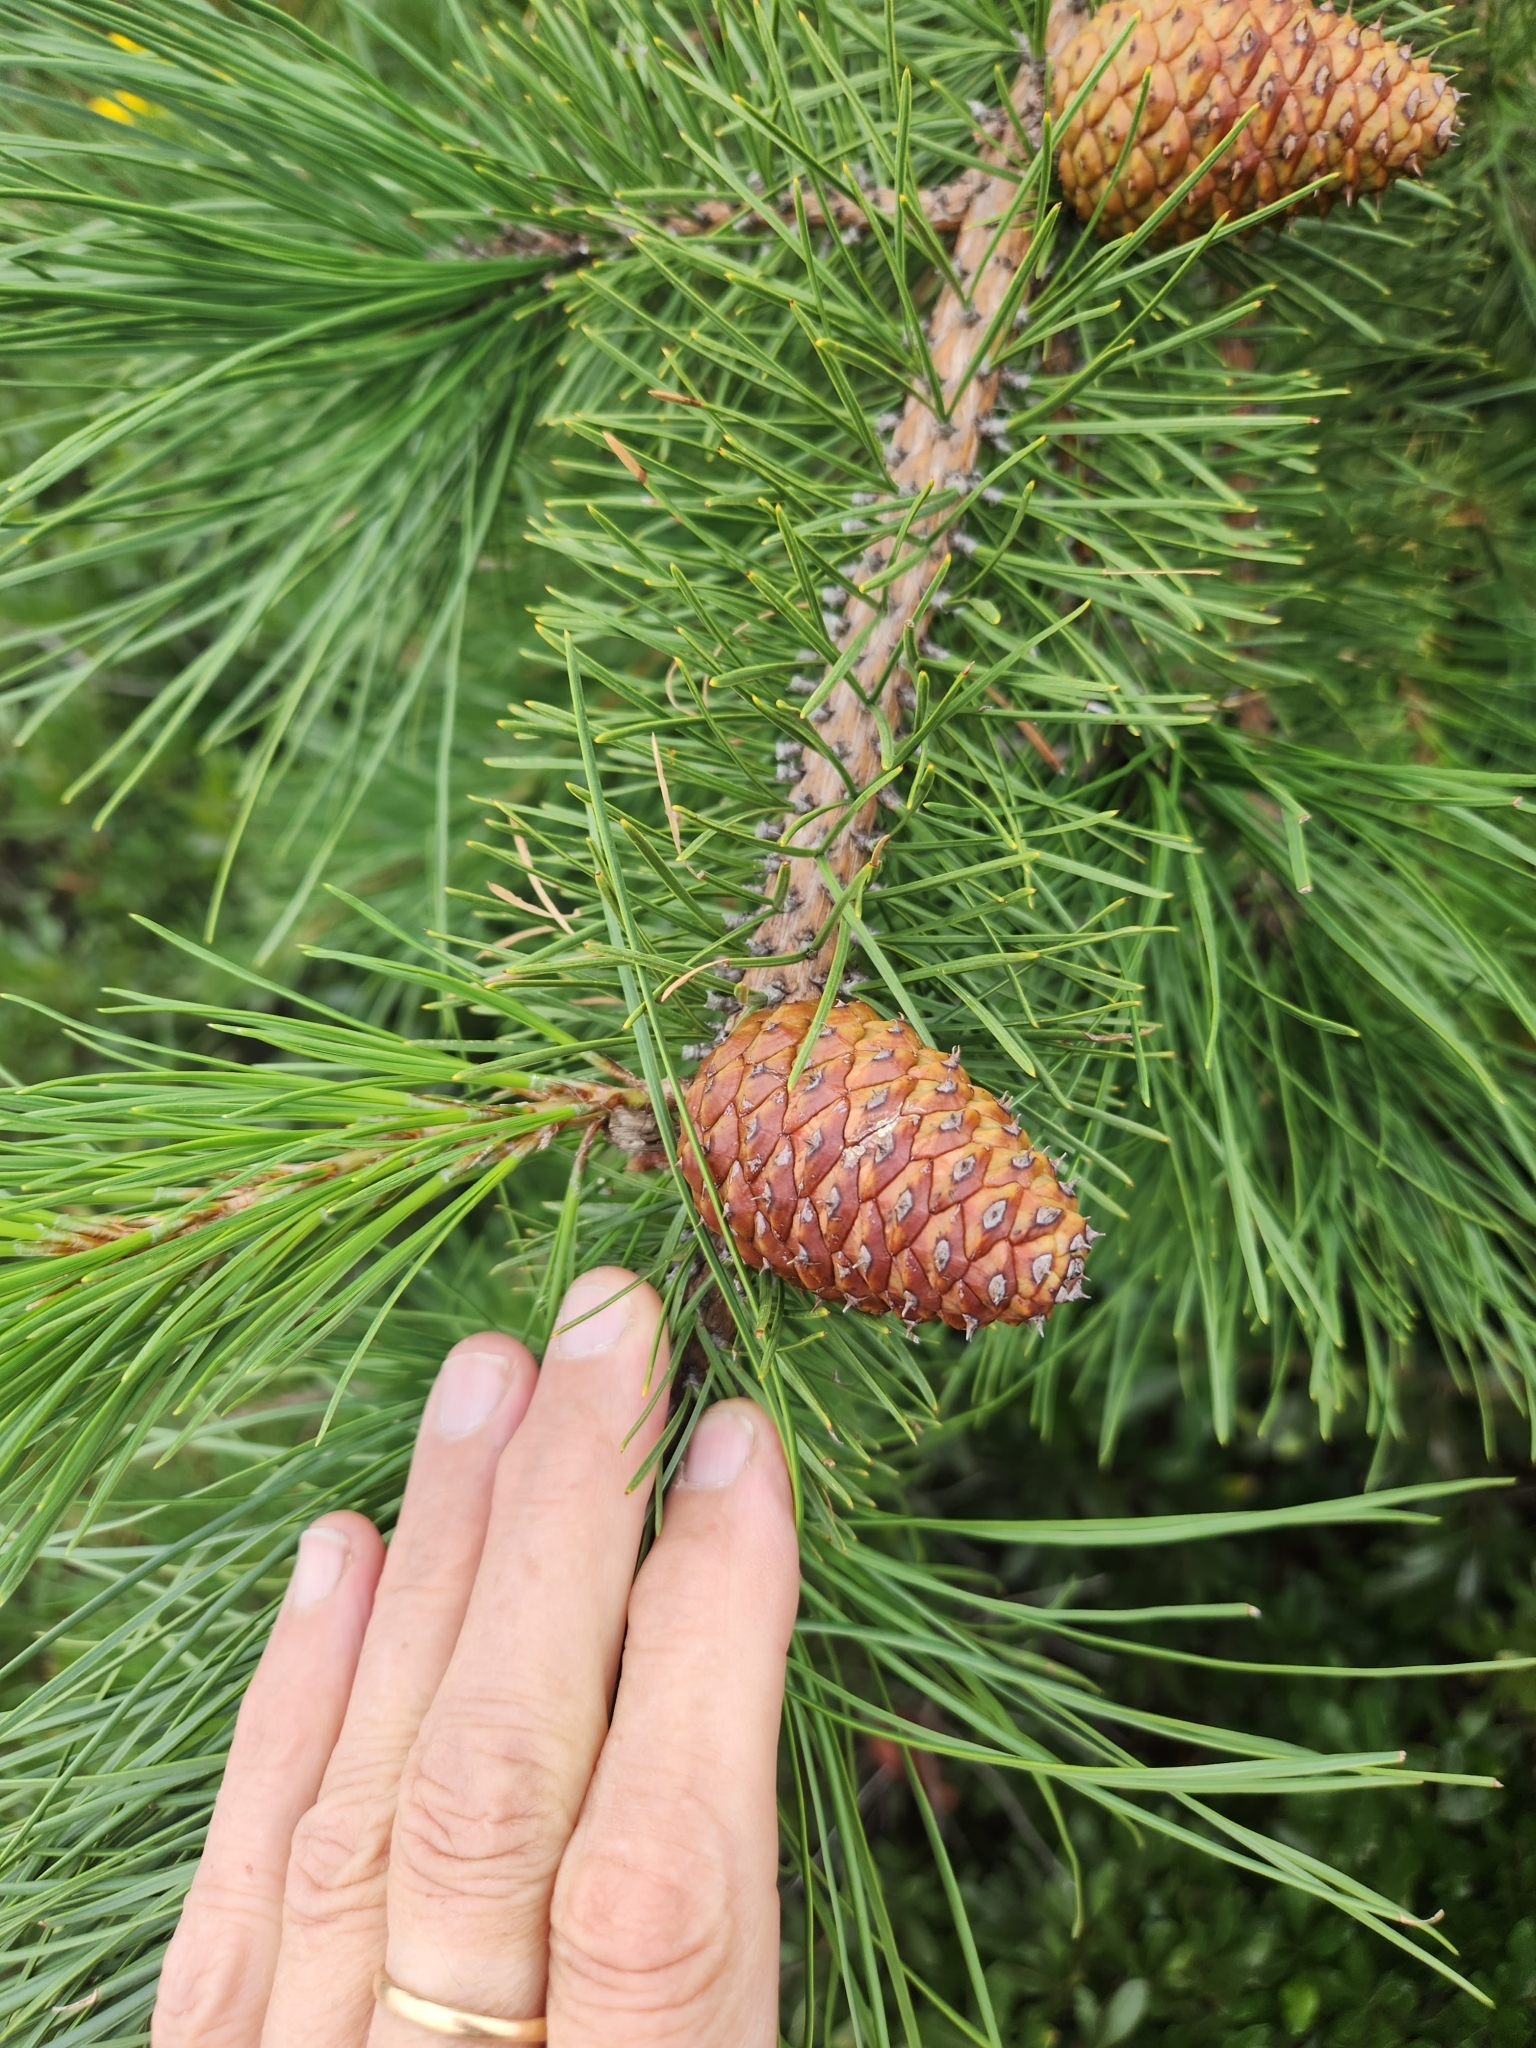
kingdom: Plantae
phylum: Tracheophyta
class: Pinopsida
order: Pinales
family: Pinaceae
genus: Pinus
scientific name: Pinus rigida
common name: Pitch pine
